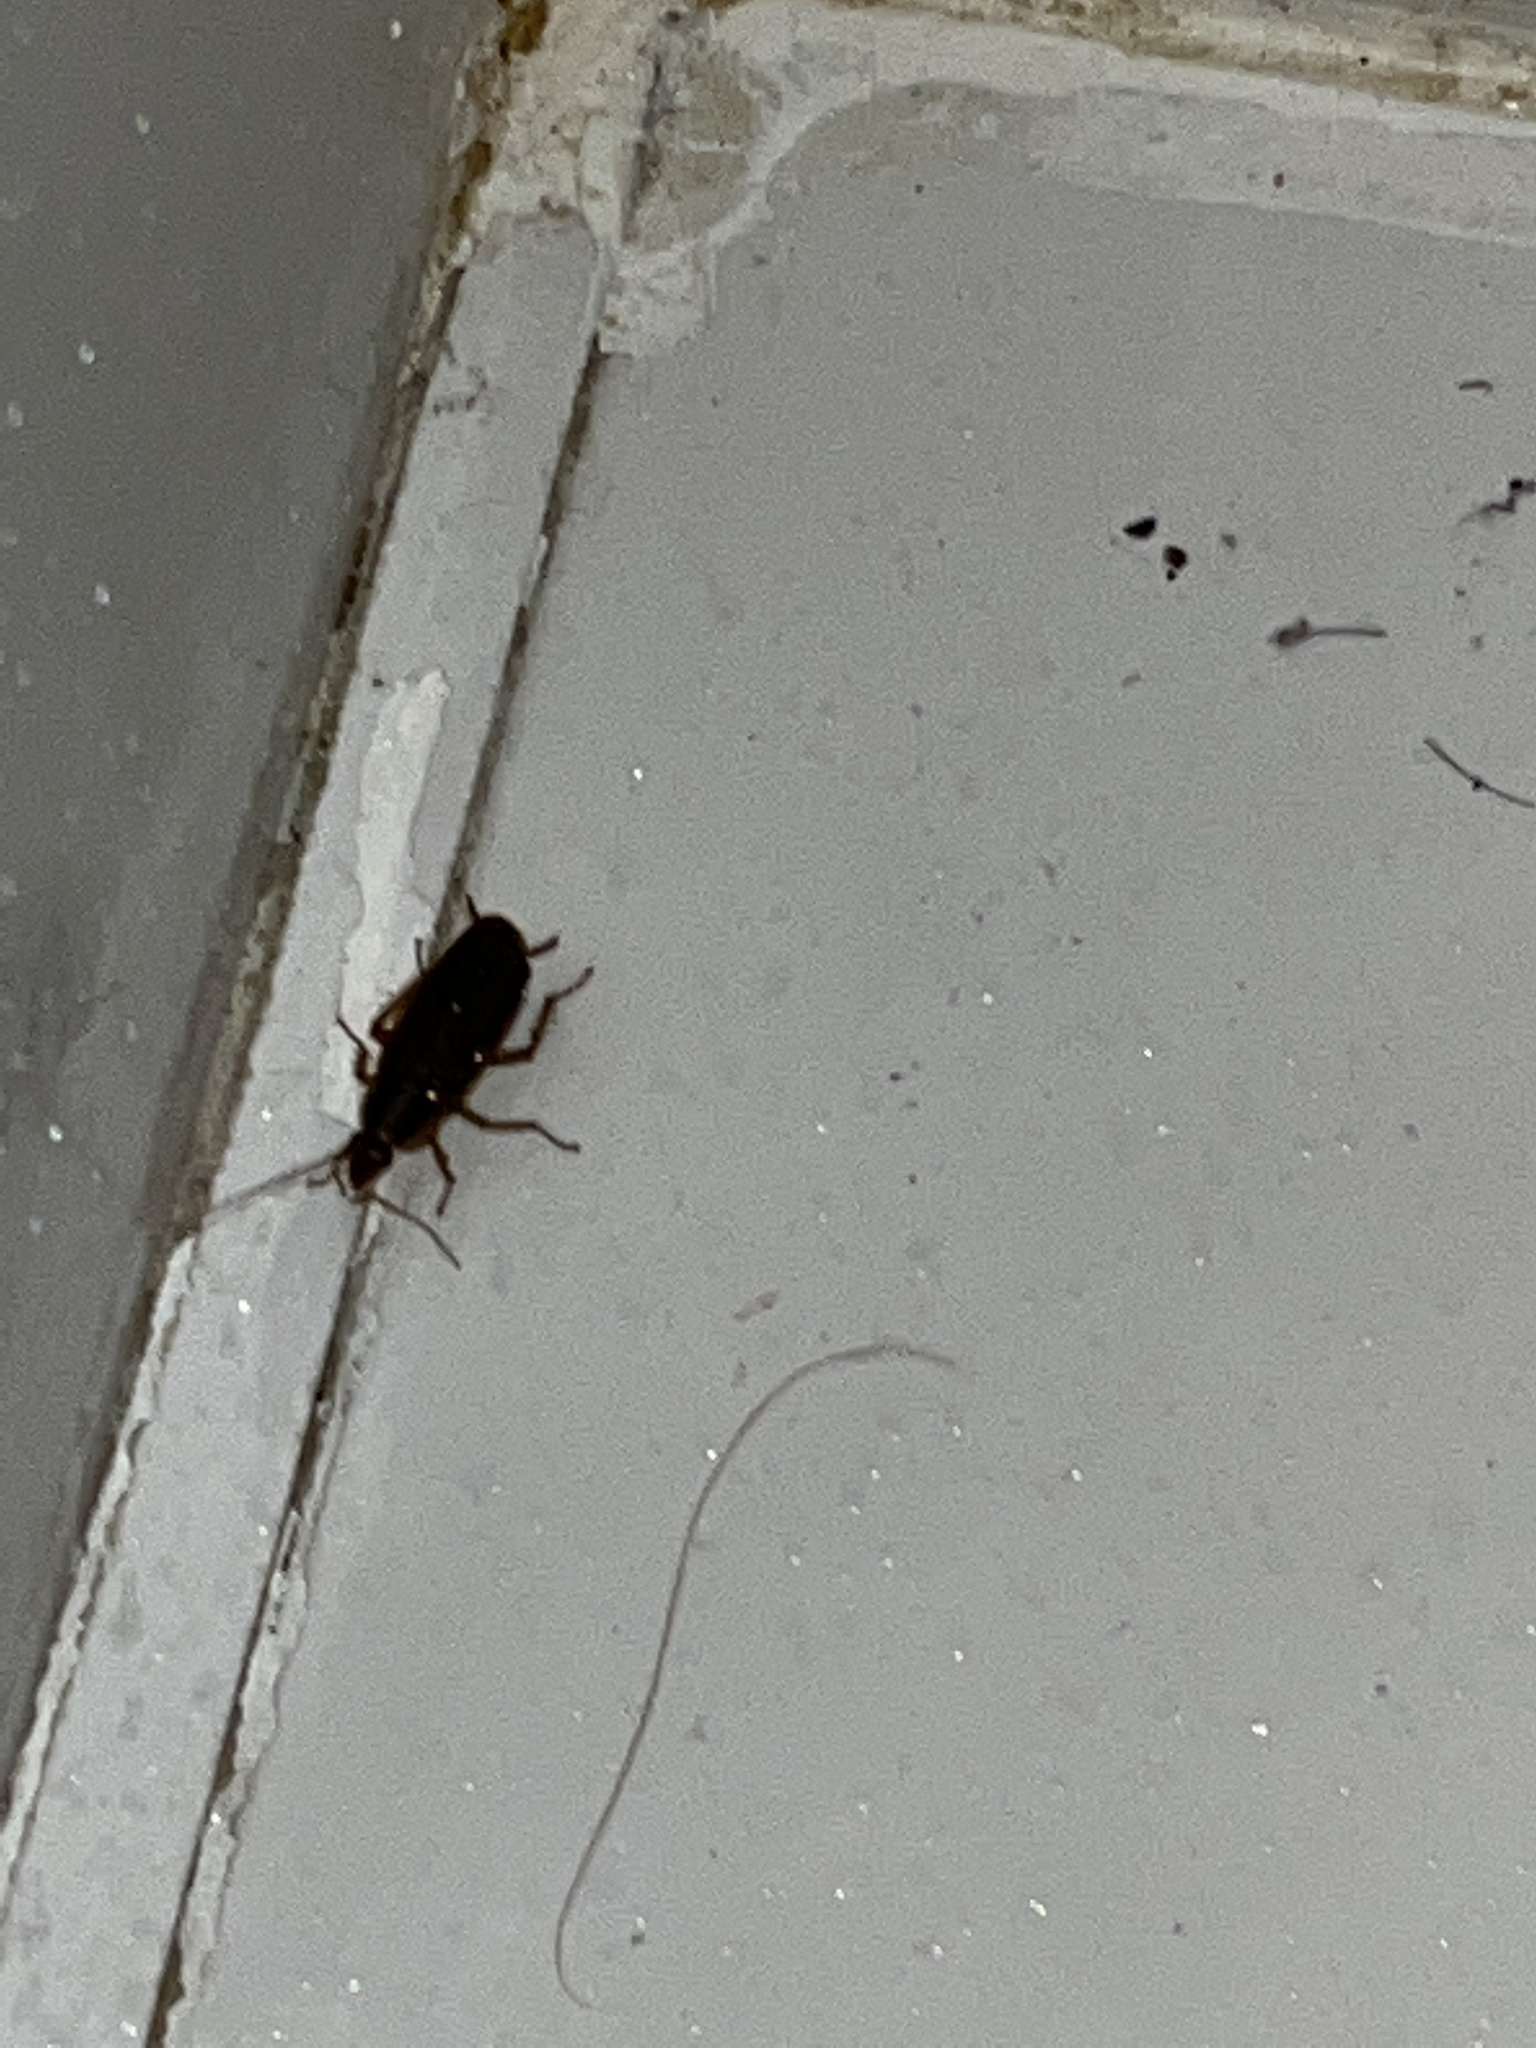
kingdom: Animalia
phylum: Arthropoda
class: Insecta
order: Blattodea
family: Ectobiidae
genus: Blattella
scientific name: Blattella germanica
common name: German cockroach
